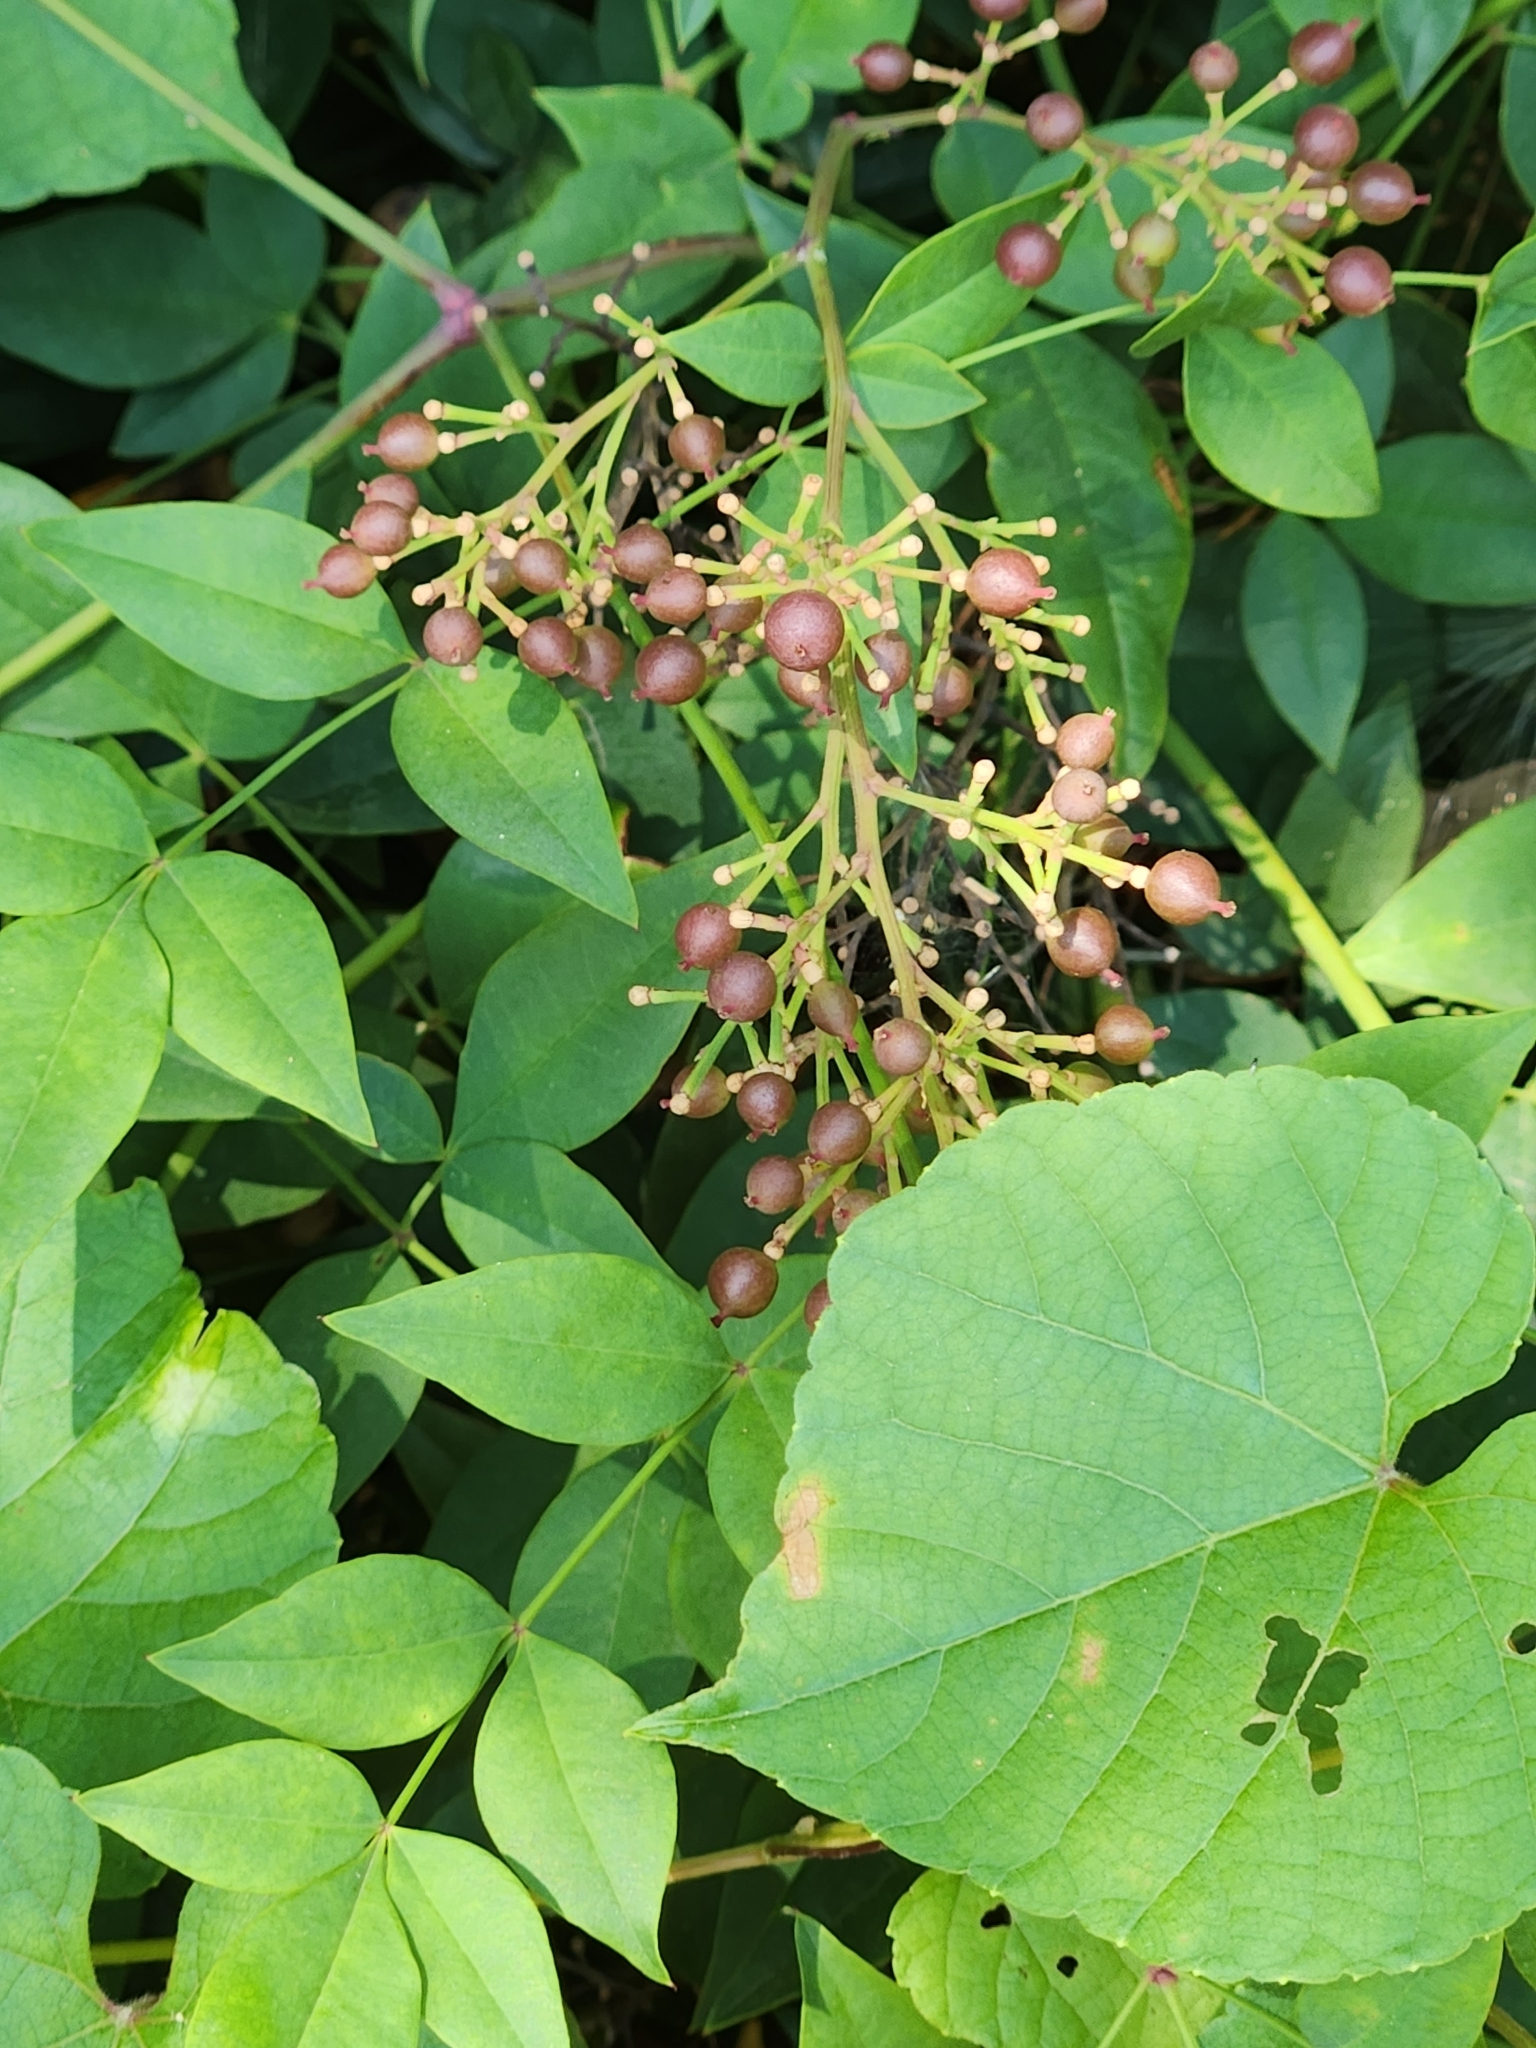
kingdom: Plantae
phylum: Tracheophyta
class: Magnoliopsida
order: Ranunculales
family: Berberidaceae
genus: Nandina
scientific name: Nandina domestica
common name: Sacred bamboo
